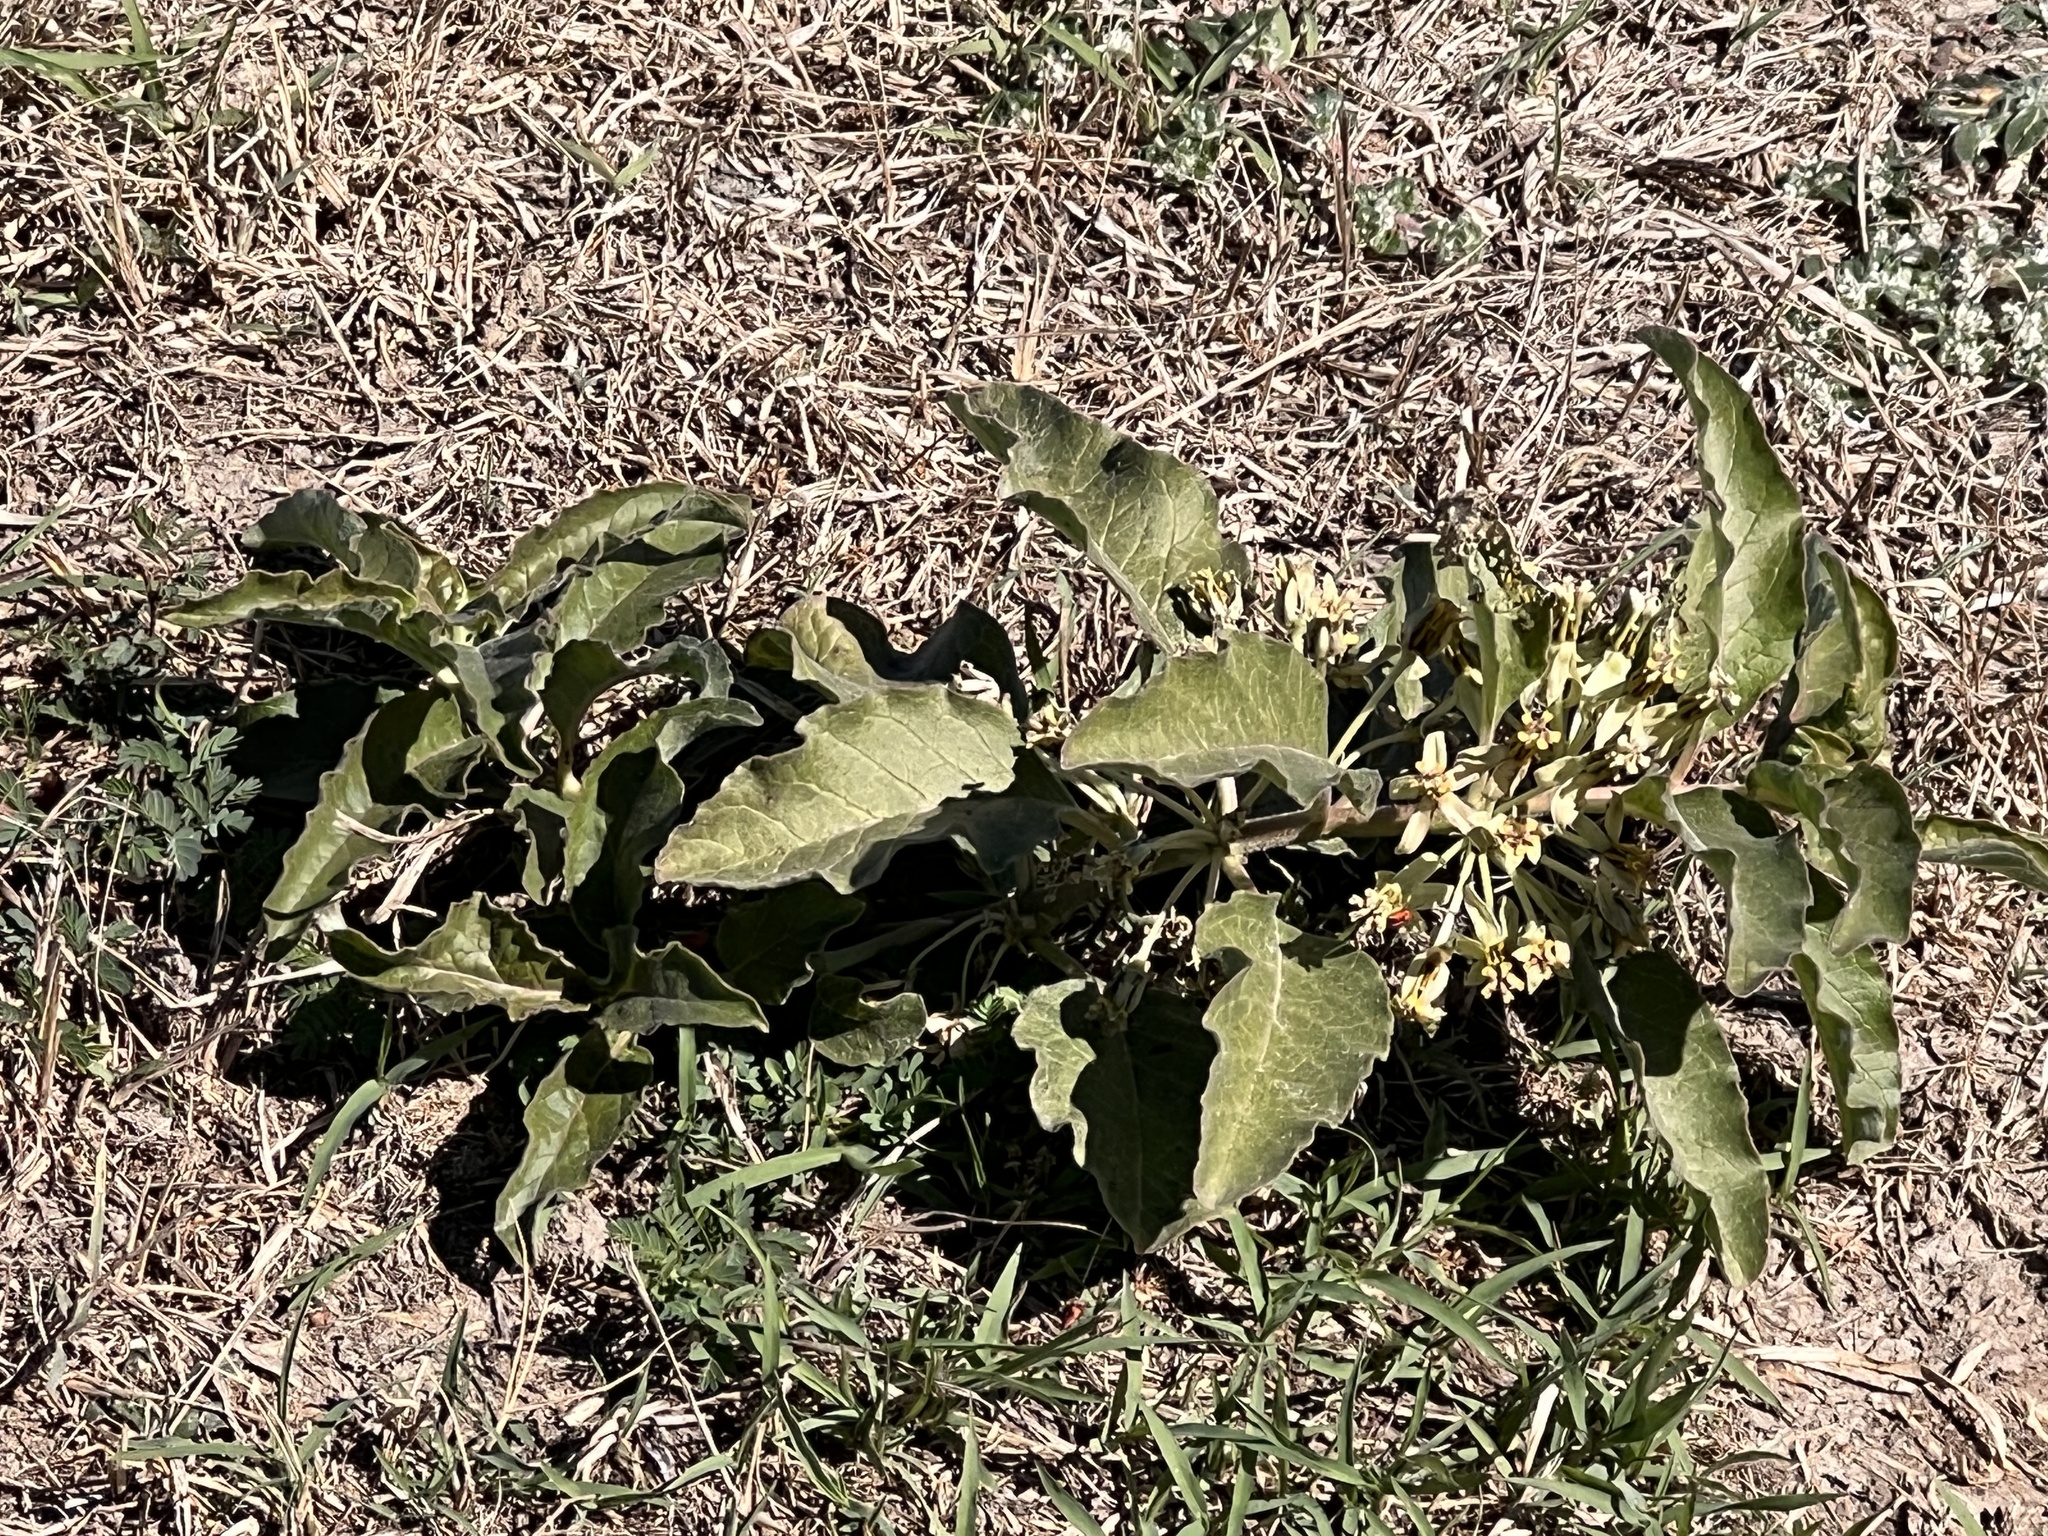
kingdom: Plantae
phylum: Tracheophyta
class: Magnoliopsida
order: Gentianales
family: Apocynaceae
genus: Asclepias
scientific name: Asclepias oenotheroides
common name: Zizotes milkweed
